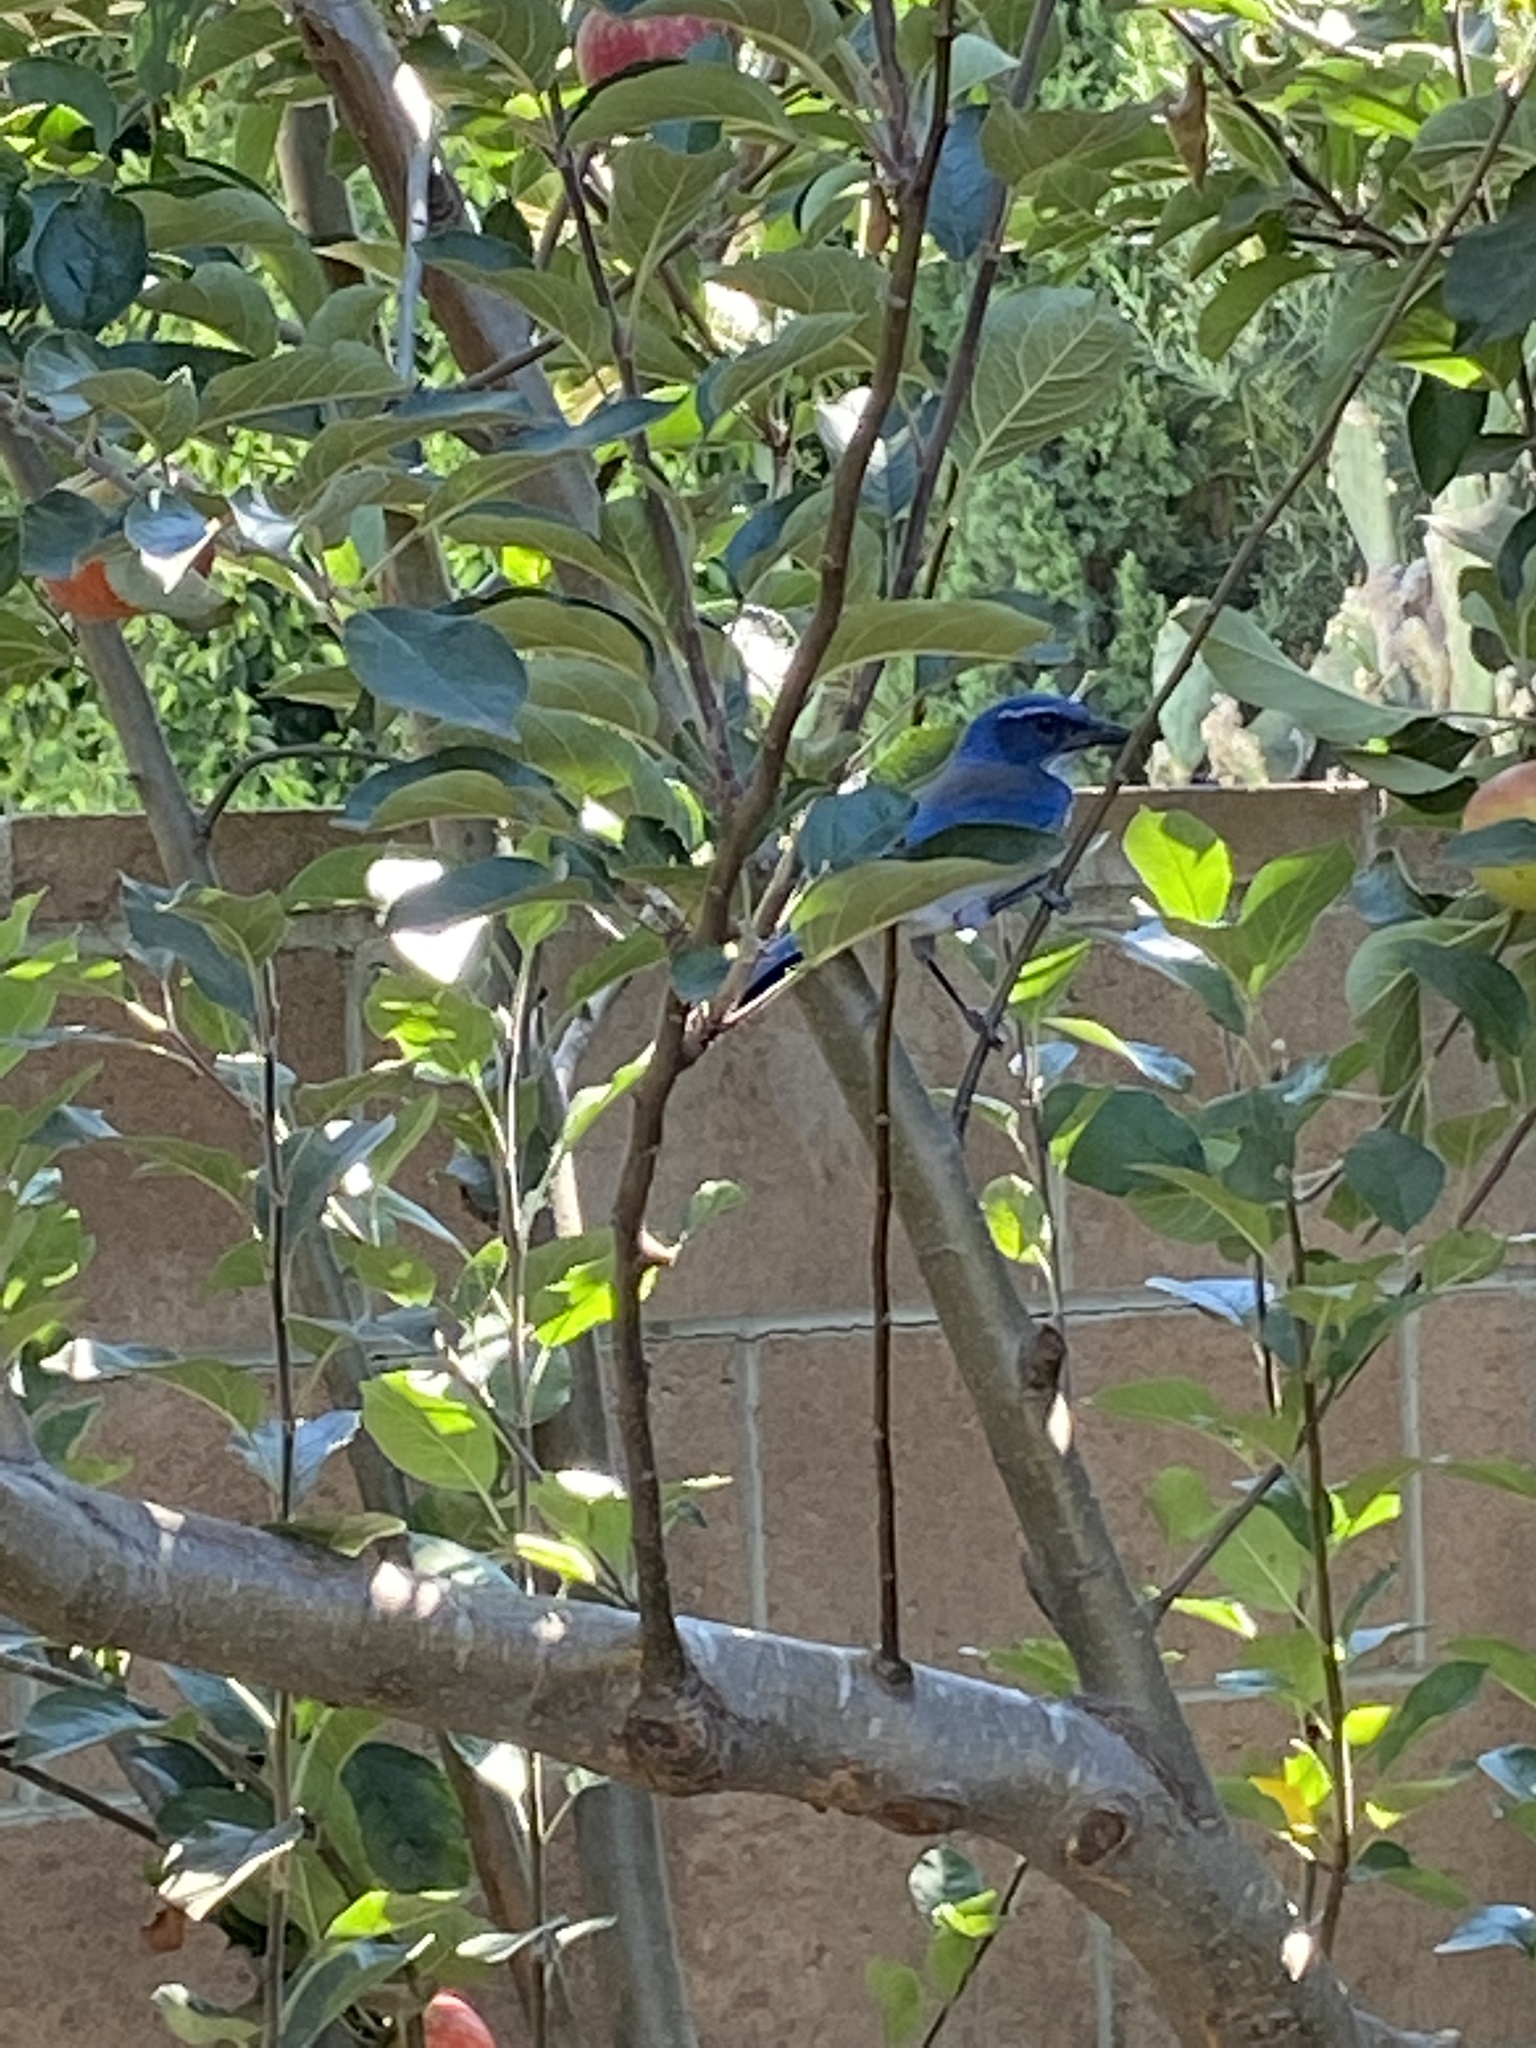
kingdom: Animalia
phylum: Chordata
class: Aves
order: Passeriformes
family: Corvidae
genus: Aphelocoma
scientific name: Aphelocoma californica
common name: California scrub-jay
